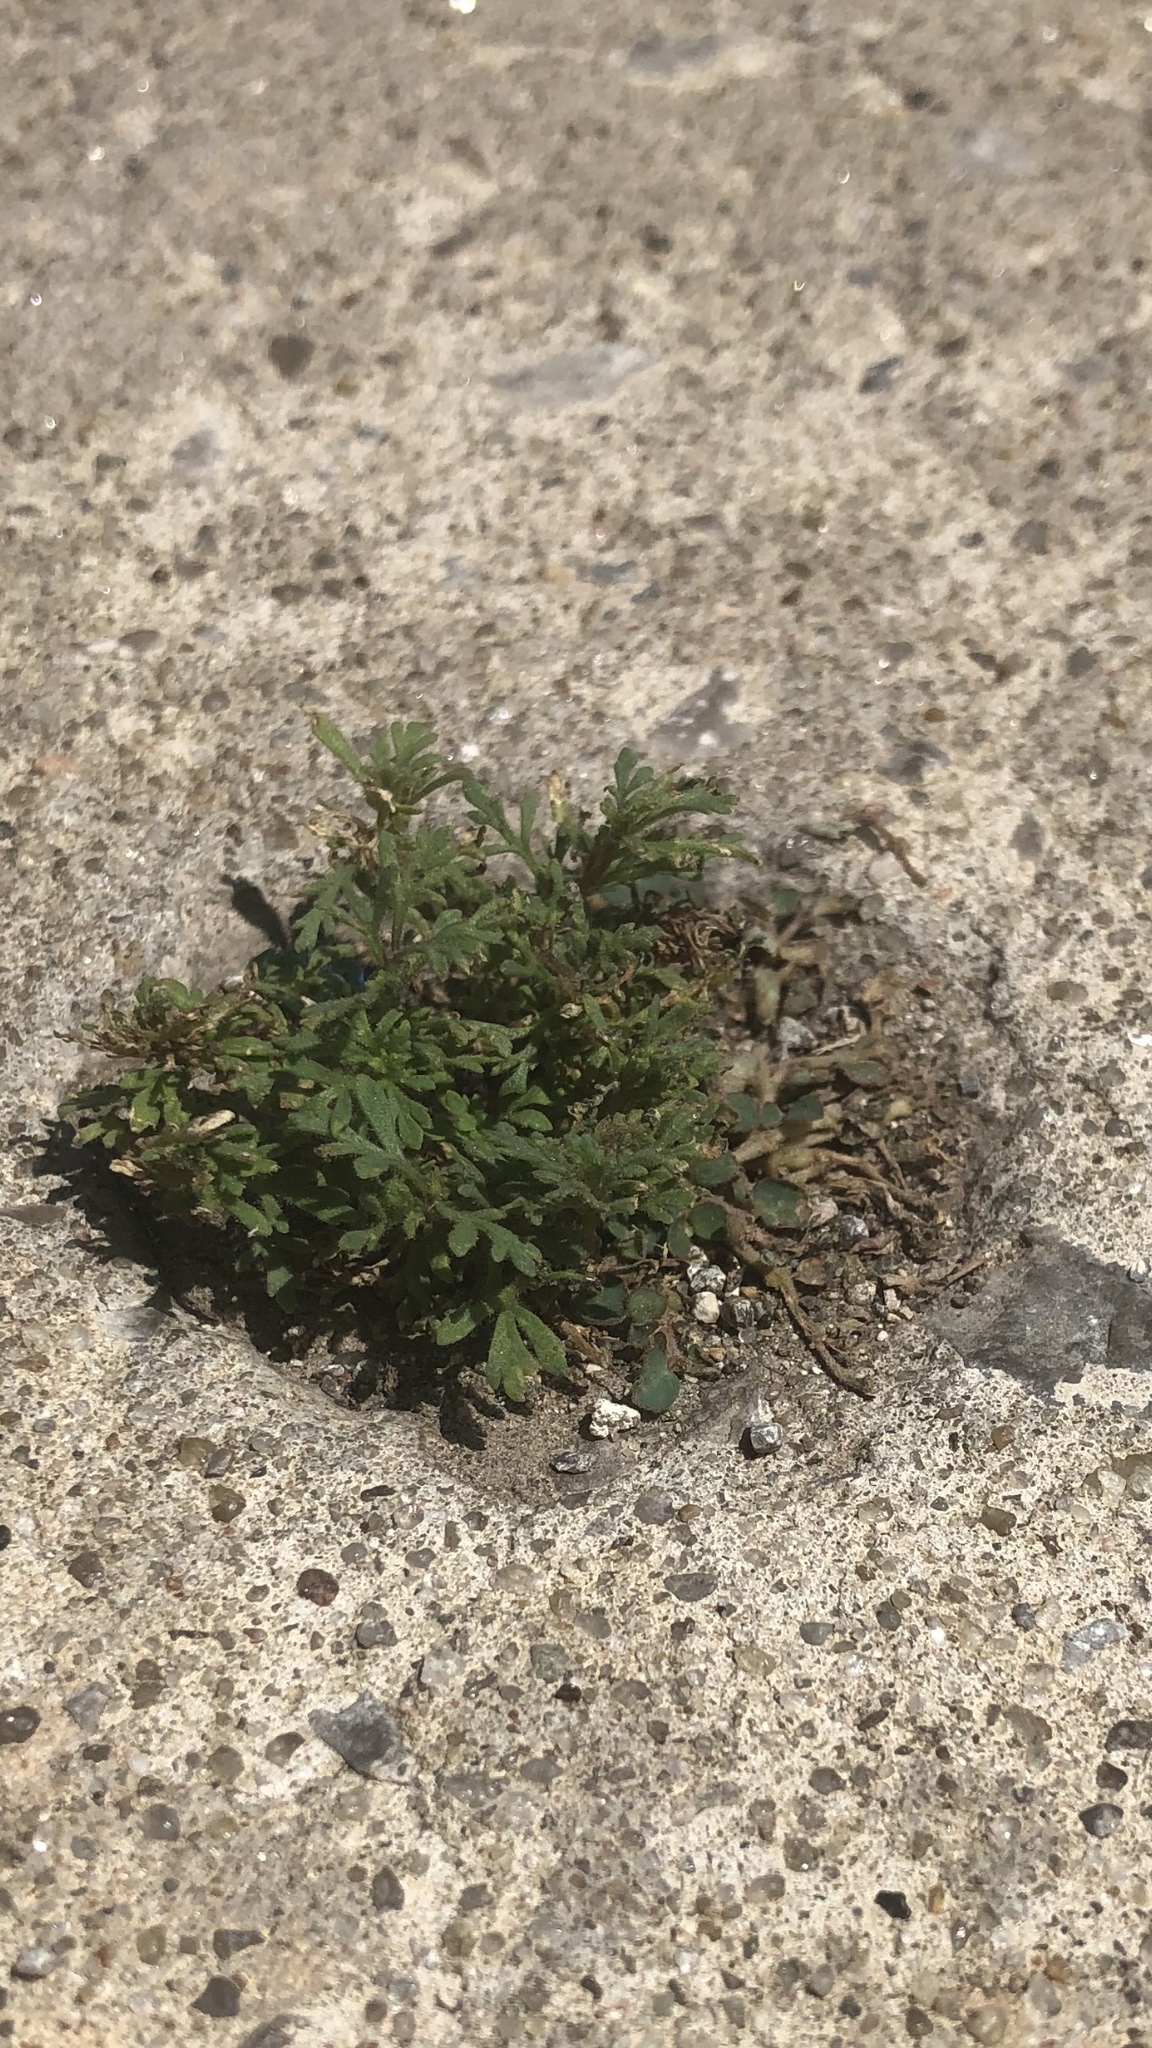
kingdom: Plantae
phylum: Tracheophyta
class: Magnoliopsida
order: Lamiales
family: Plantaginaceae
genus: Leucospora
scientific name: Leucospora multifida
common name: Narrow-leaf paleseed
